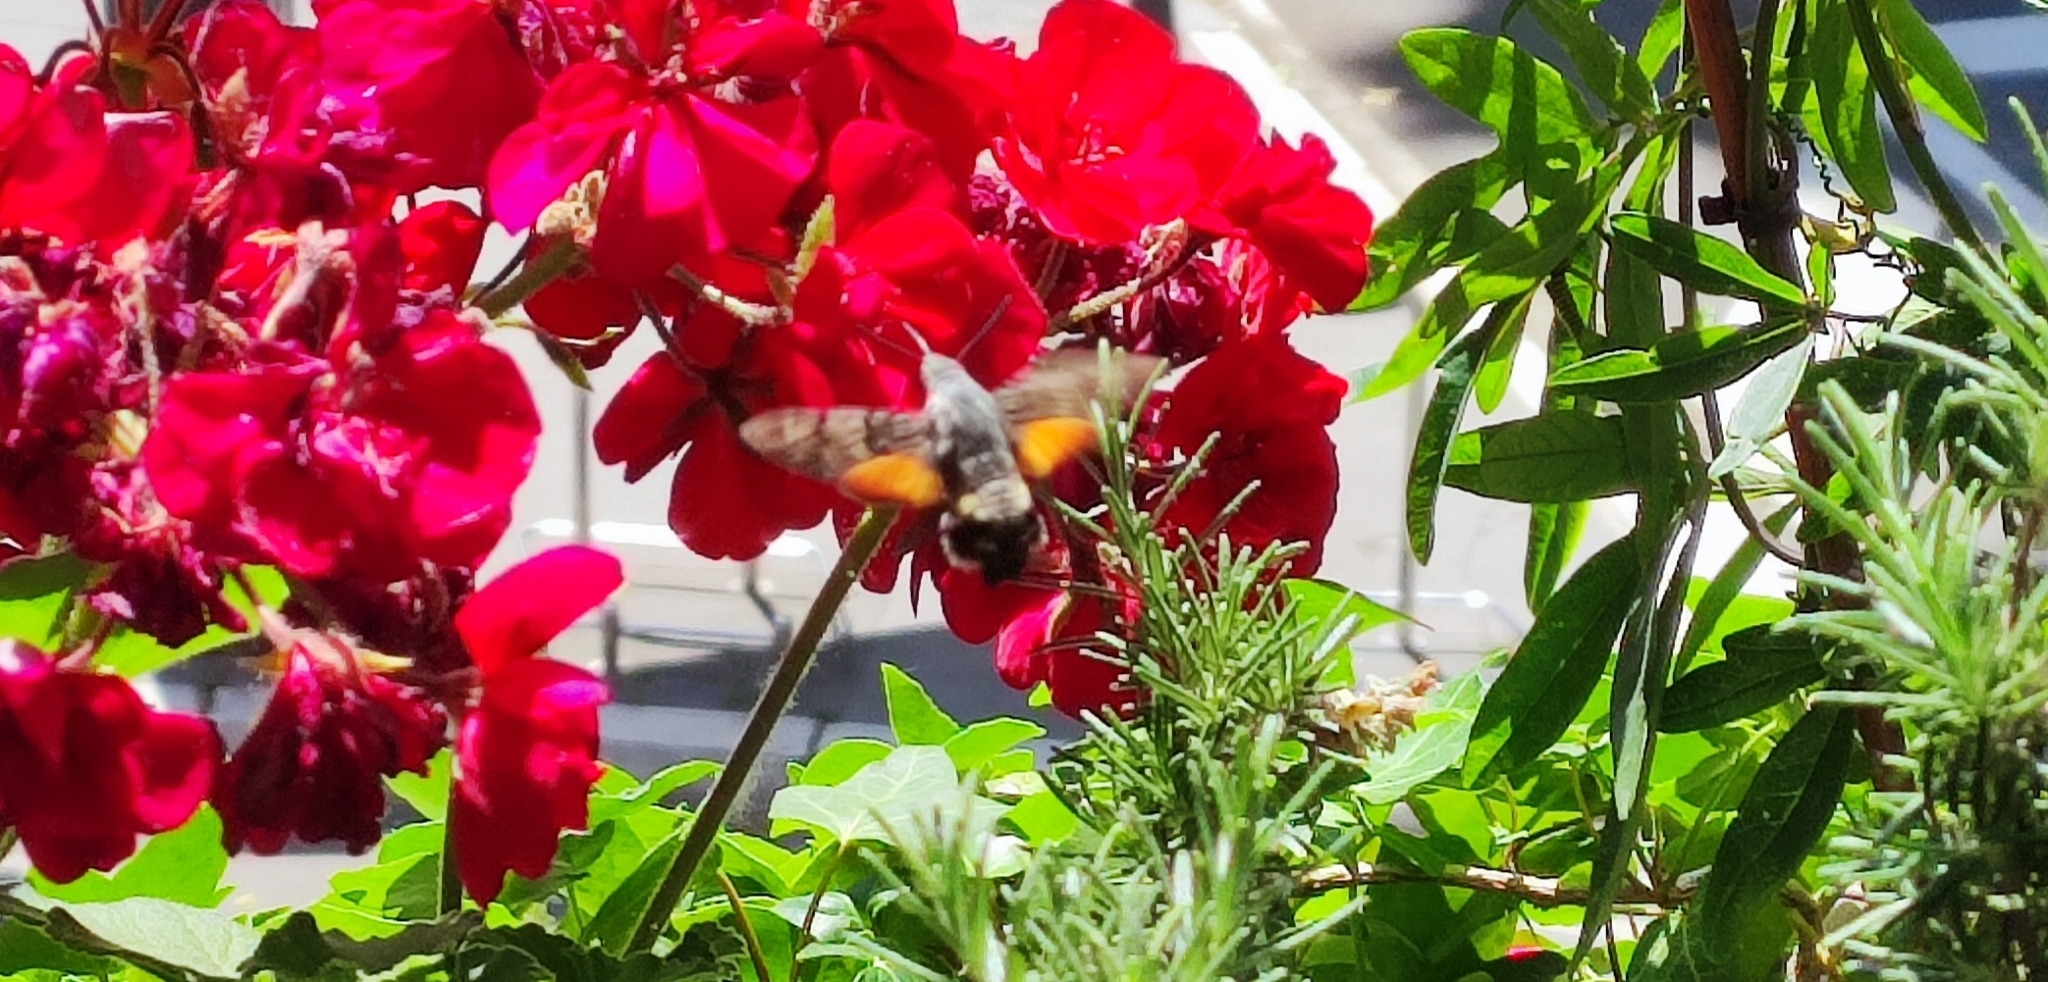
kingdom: Animalia
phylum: Arthropoda
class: Insecta
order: Lepidoptera
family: Sphingidae
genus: Macroglossum
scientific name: Macroglossum stellatarum
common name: Humming-bird hawk-moth
